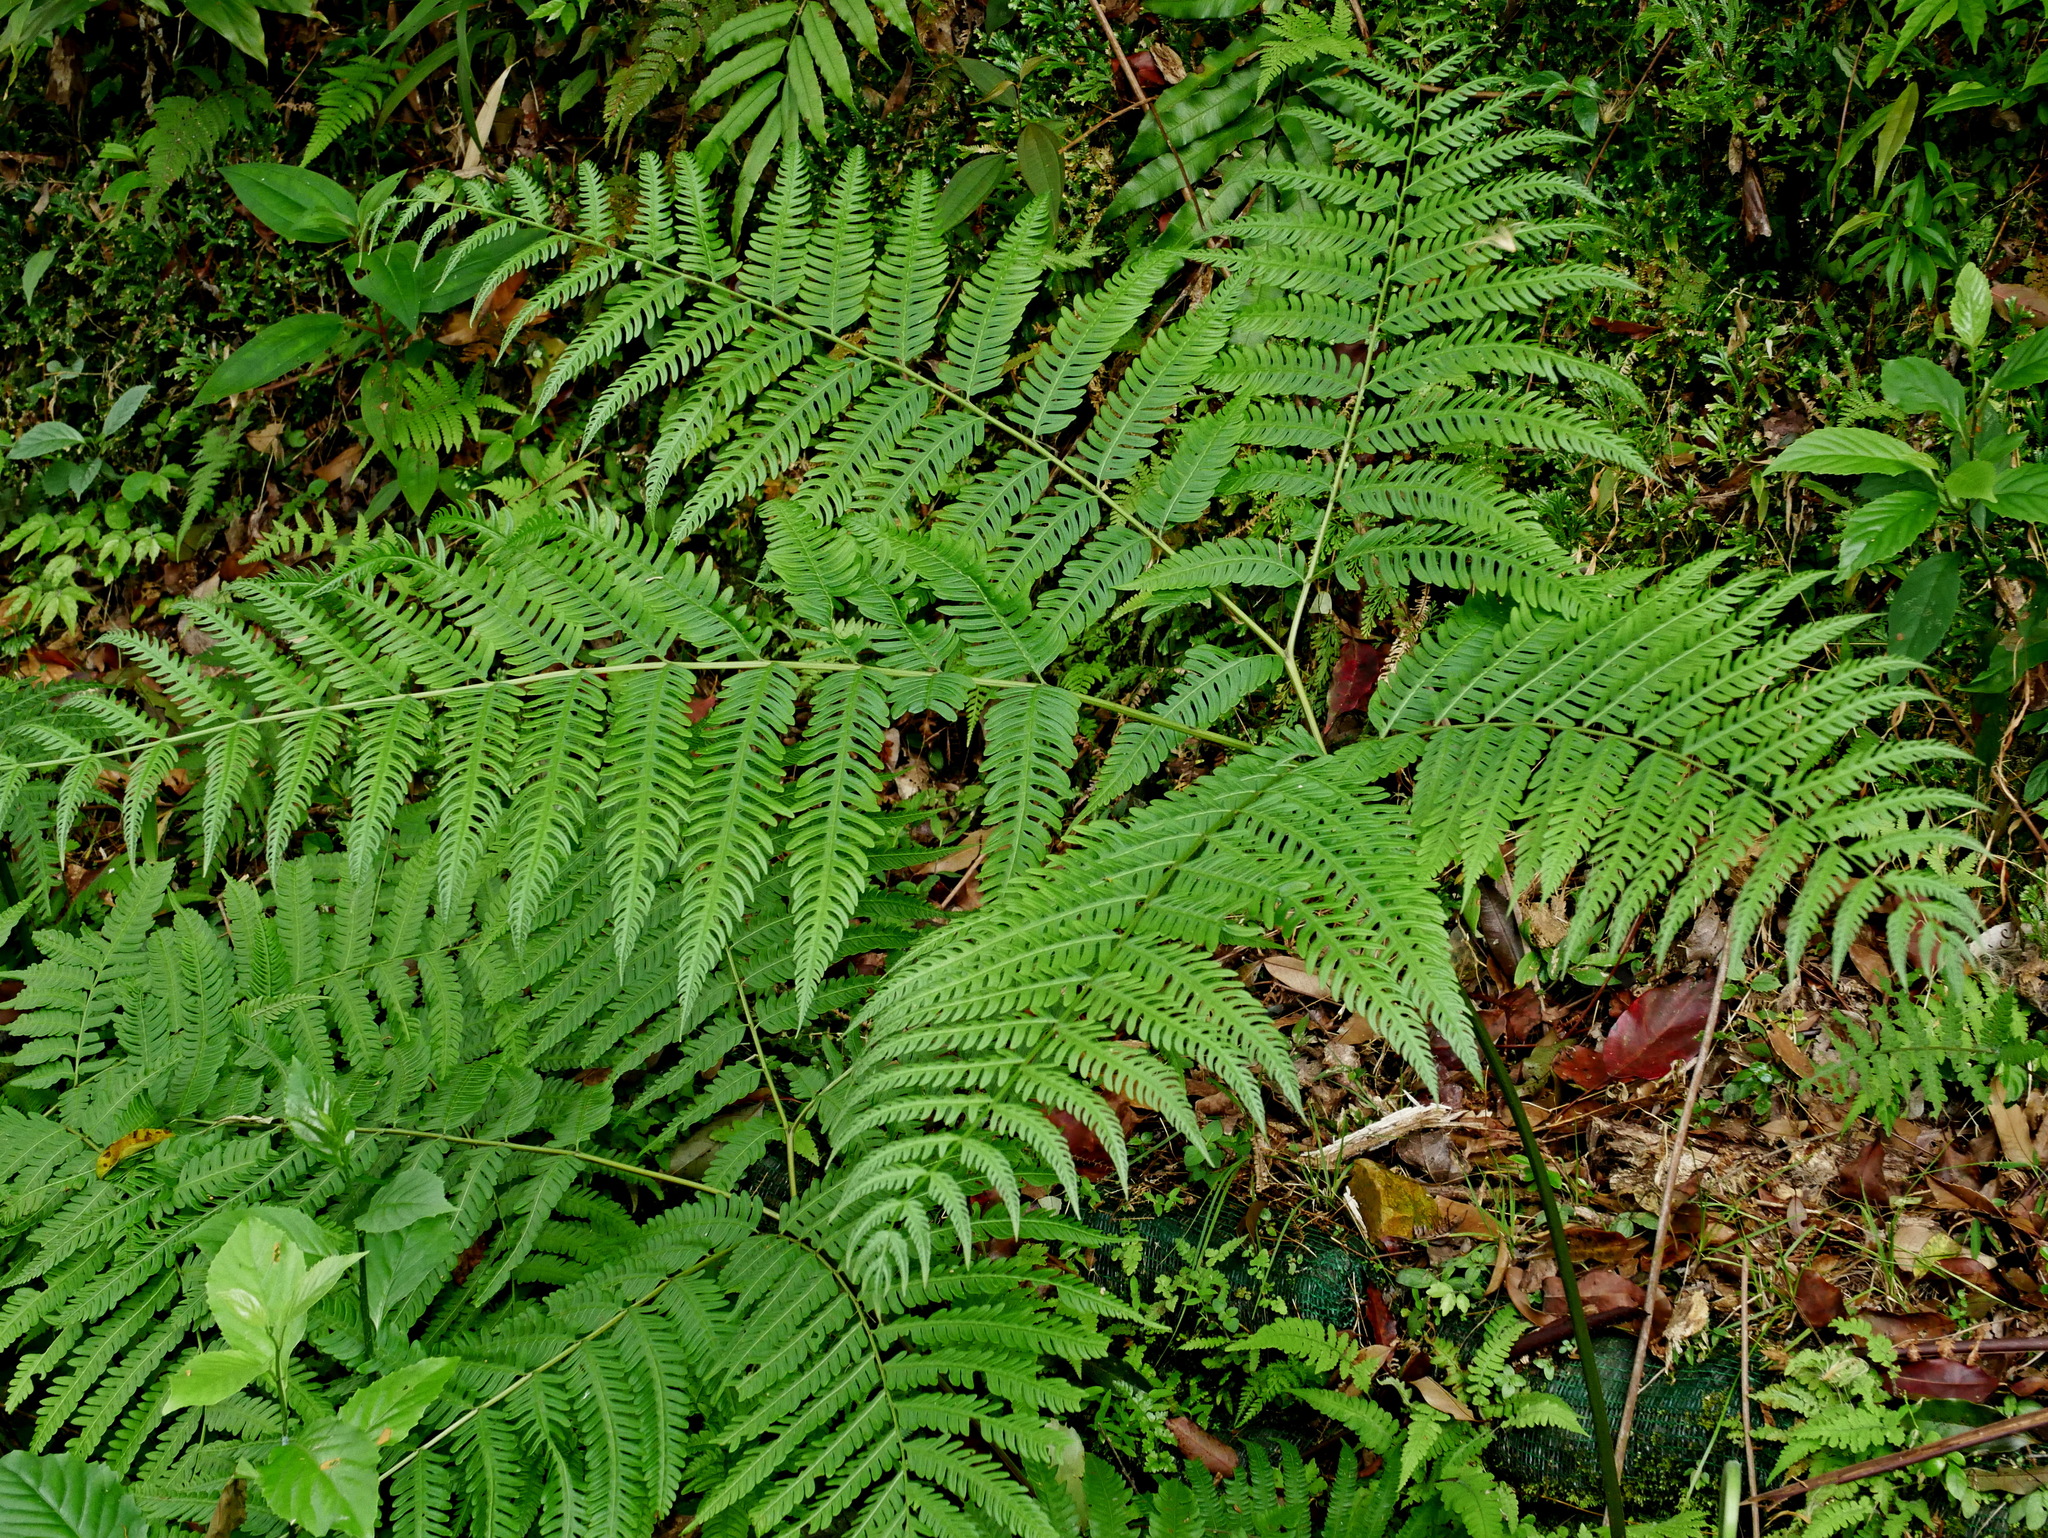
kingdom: Plantae
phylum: Tracheophyta
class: Polypodiopsida
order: Polypodiales
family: Pteridaceae
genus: Pteris
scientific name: Pteris wallichiana
